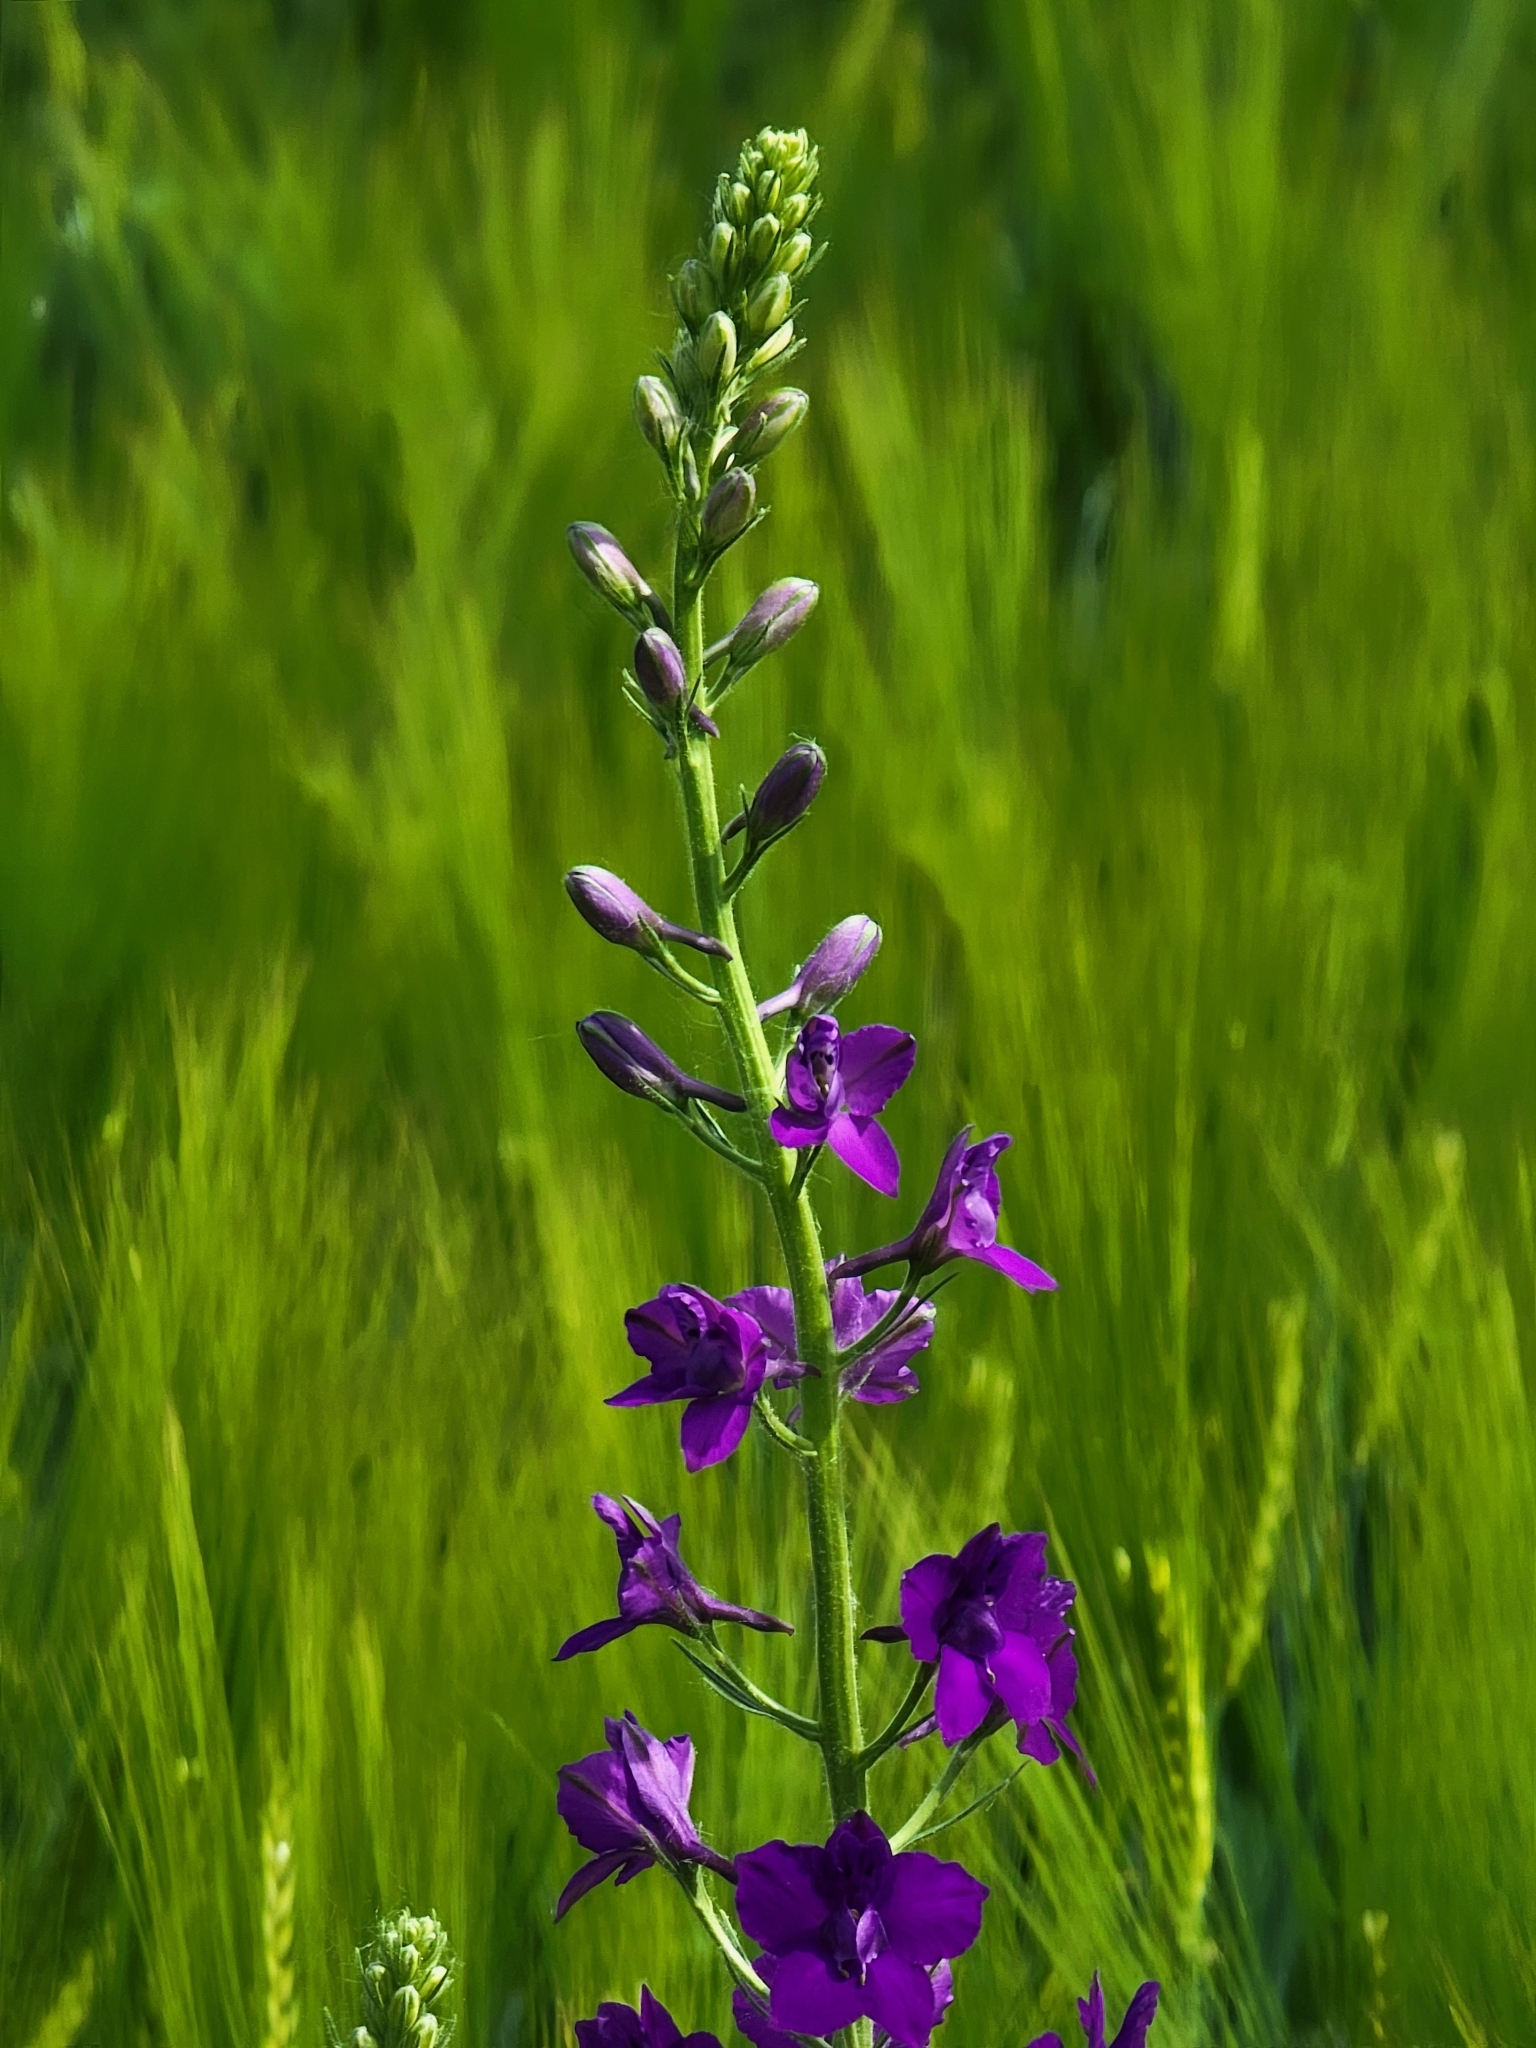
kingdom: Plantae
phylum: Tracheophyta
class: Magnoliopsida
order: Ranunculales
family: Ranunculaceae
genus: Delphinium
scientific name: Delphinium ajacis
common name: Doubtful knight's-spur
